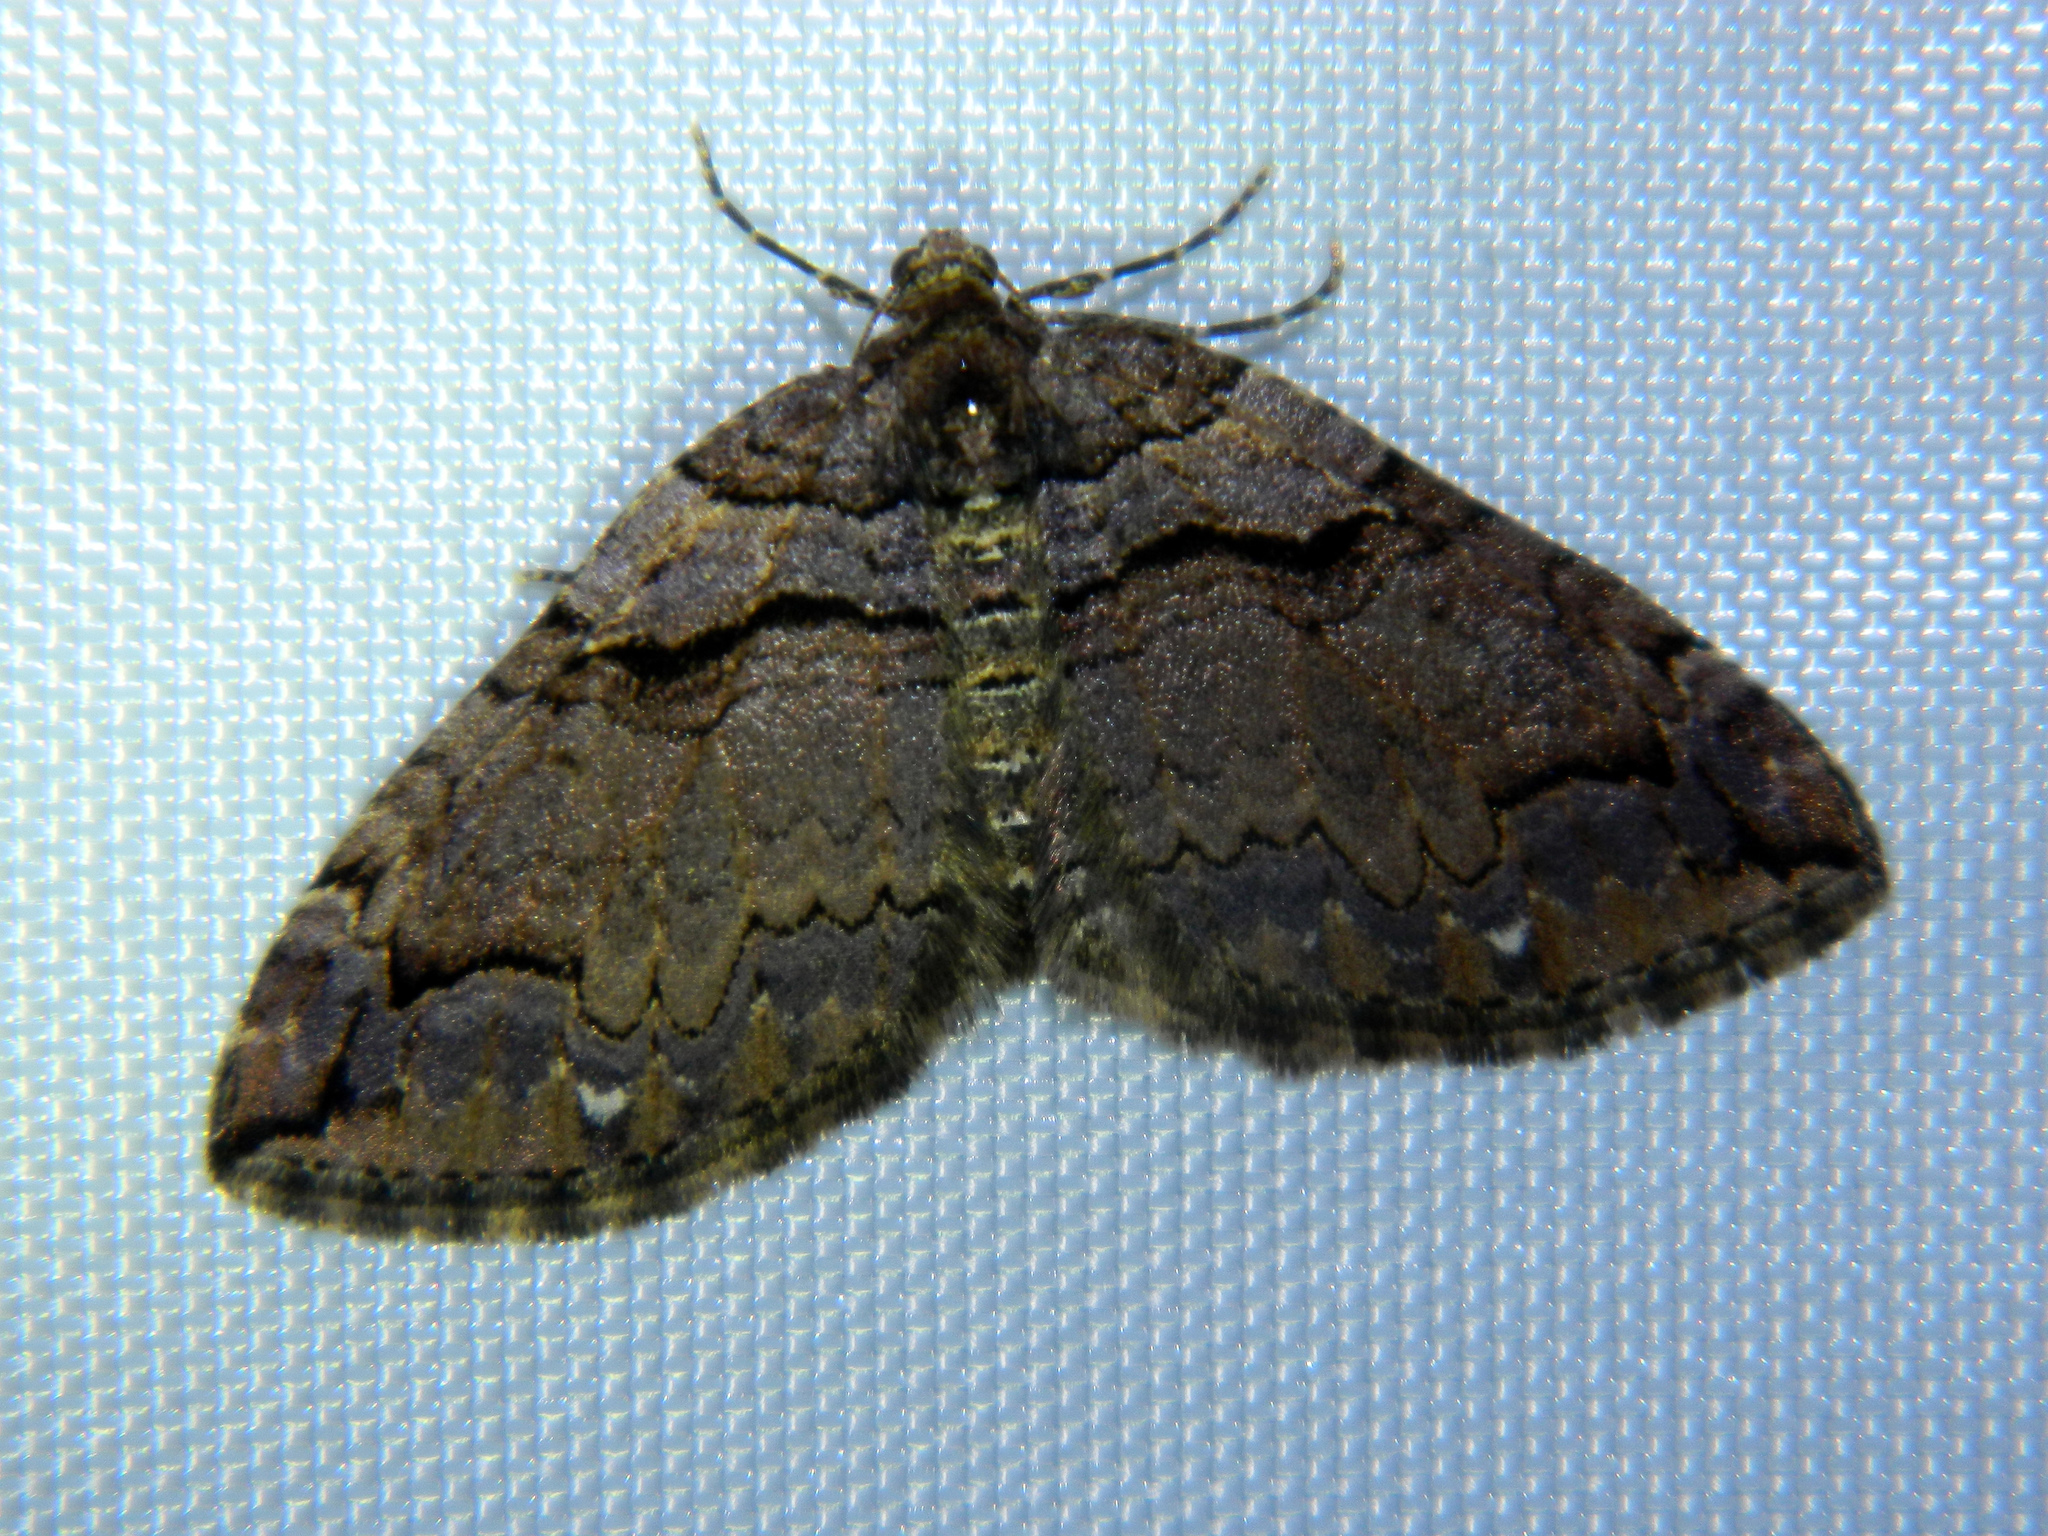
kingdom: Animalia
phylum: Arthropoda
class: Insecta
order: Lepidoptera
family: Geometridae
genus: Anticlea
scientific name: Anticlea vasiliata
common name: Variable carpet
